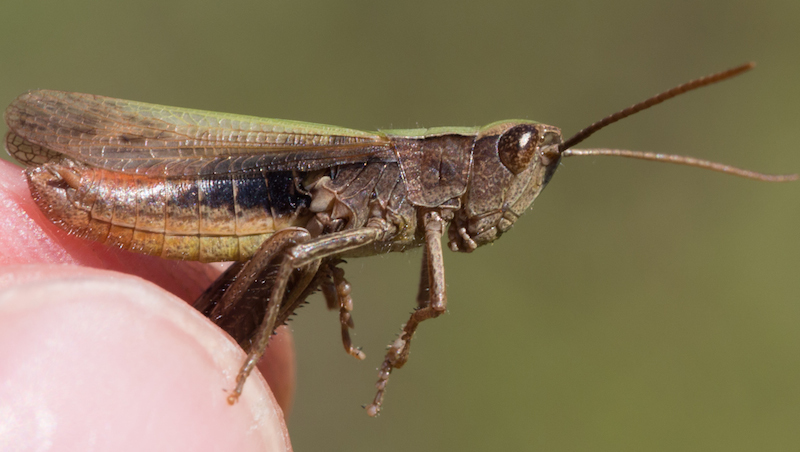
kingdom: Animalia
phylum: Arthropoda
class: Insecta
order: Orthoptera
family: Acrididae
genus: Chorthippus
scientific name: Chorthippus dorsatus
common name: Steppe grasshopper
